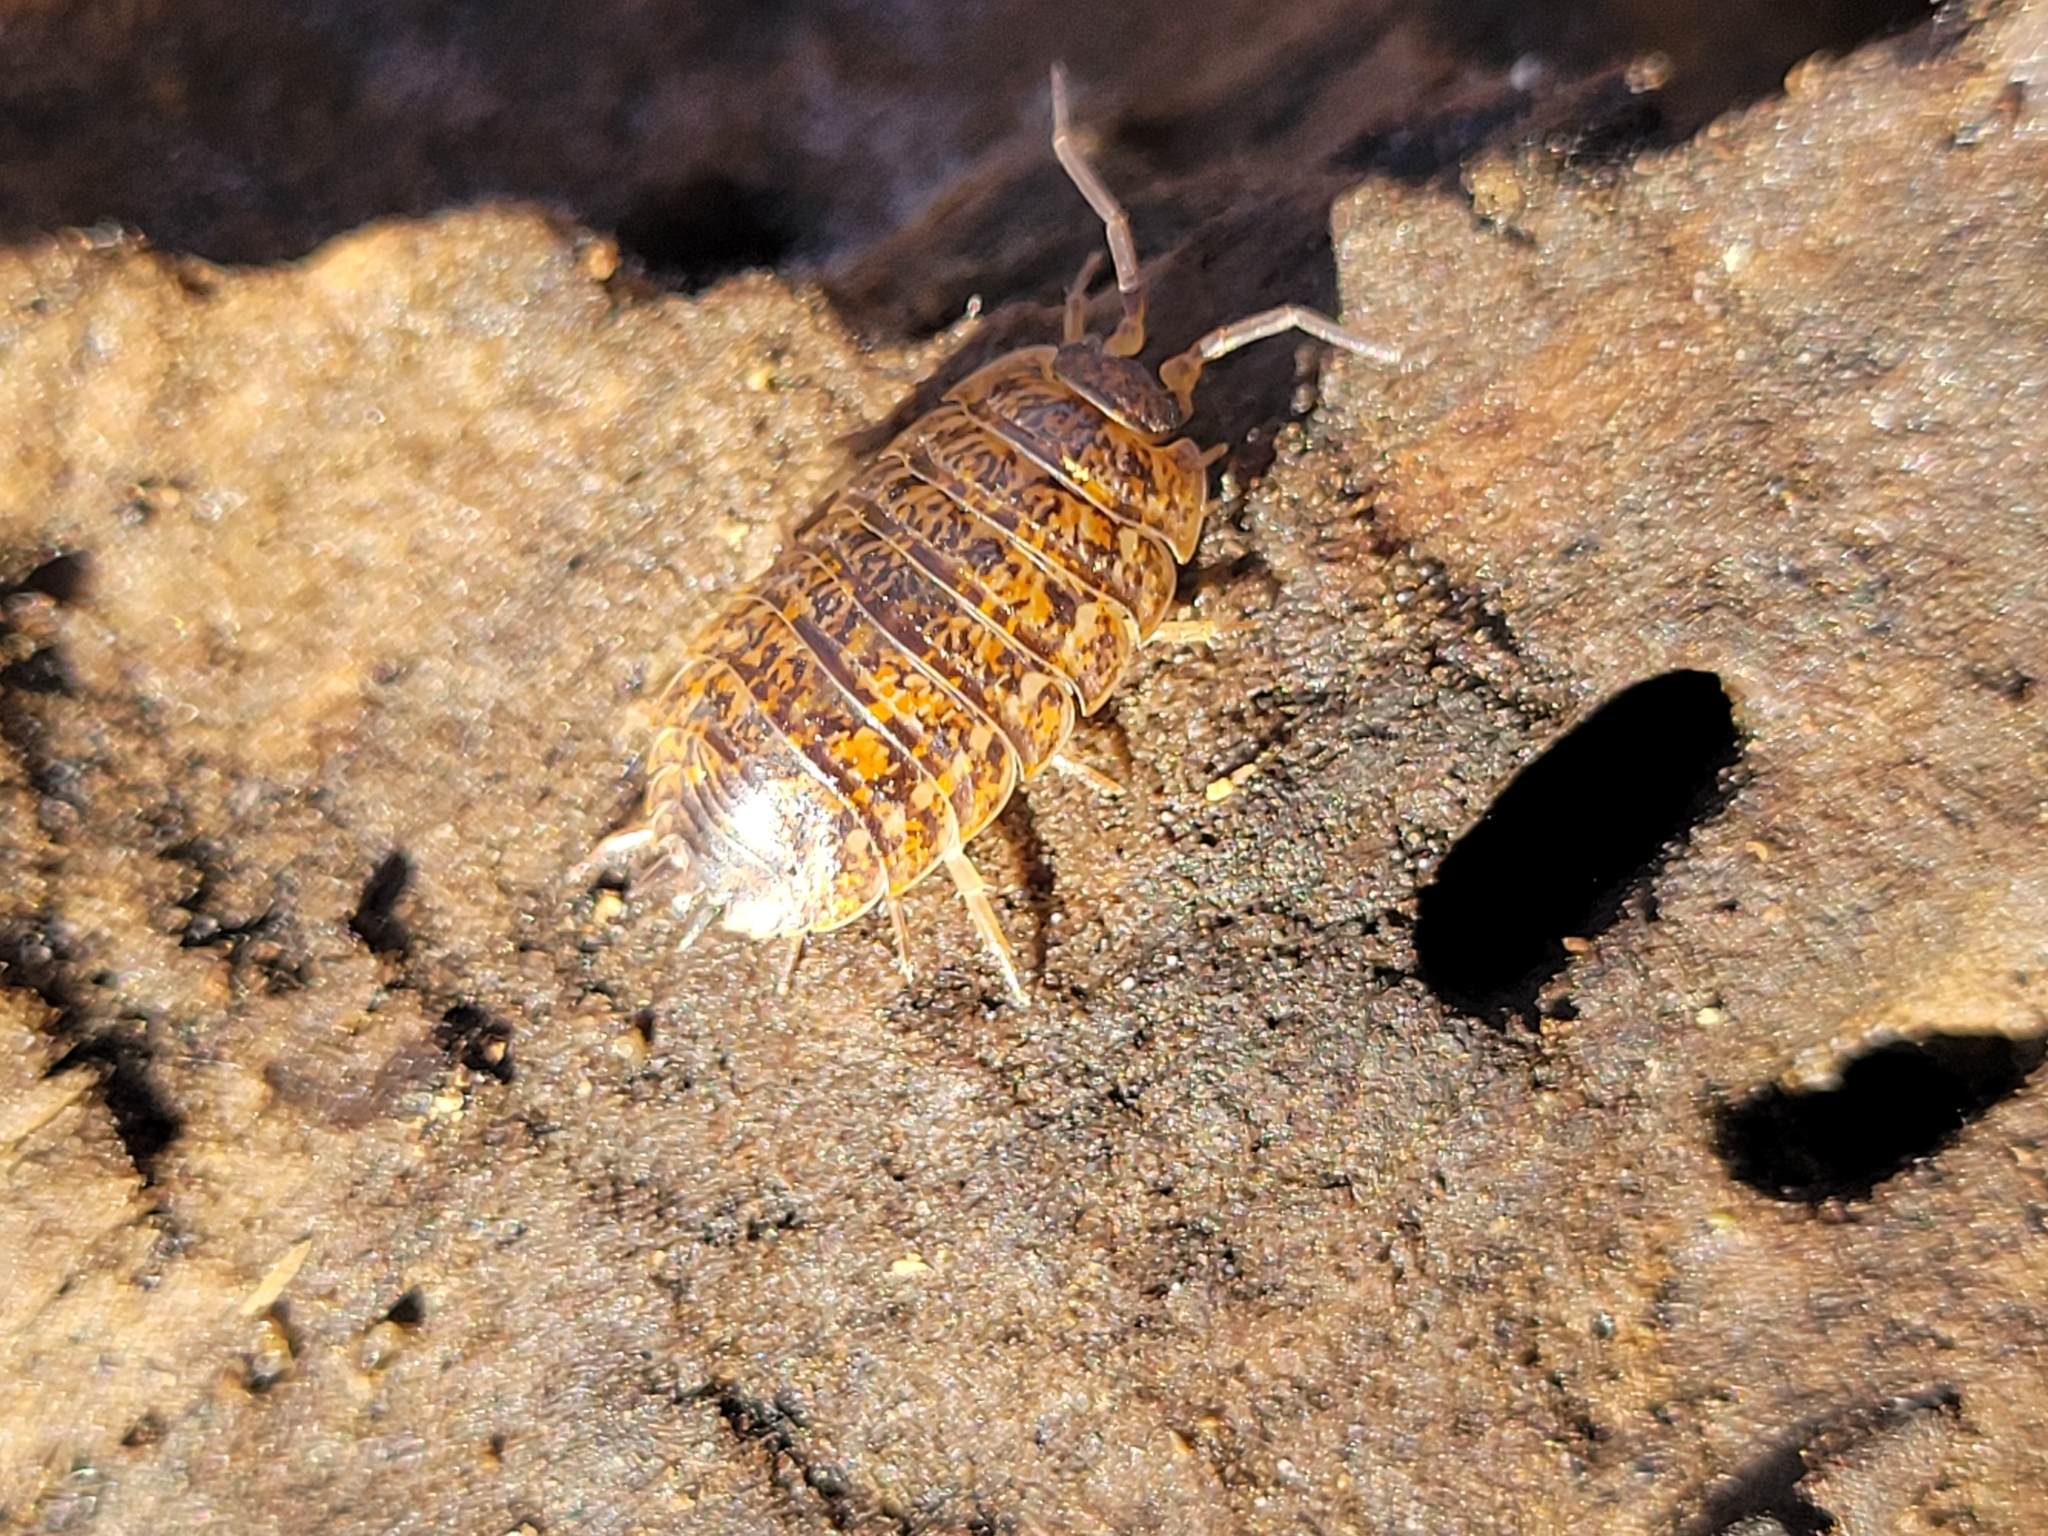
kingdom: Animalia
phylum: Arthropoda
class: Malacostraca
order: Isopoda
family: Trachelipodidae
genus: Trachelipus
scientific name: Trachelipus rathkii
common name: Isopod
